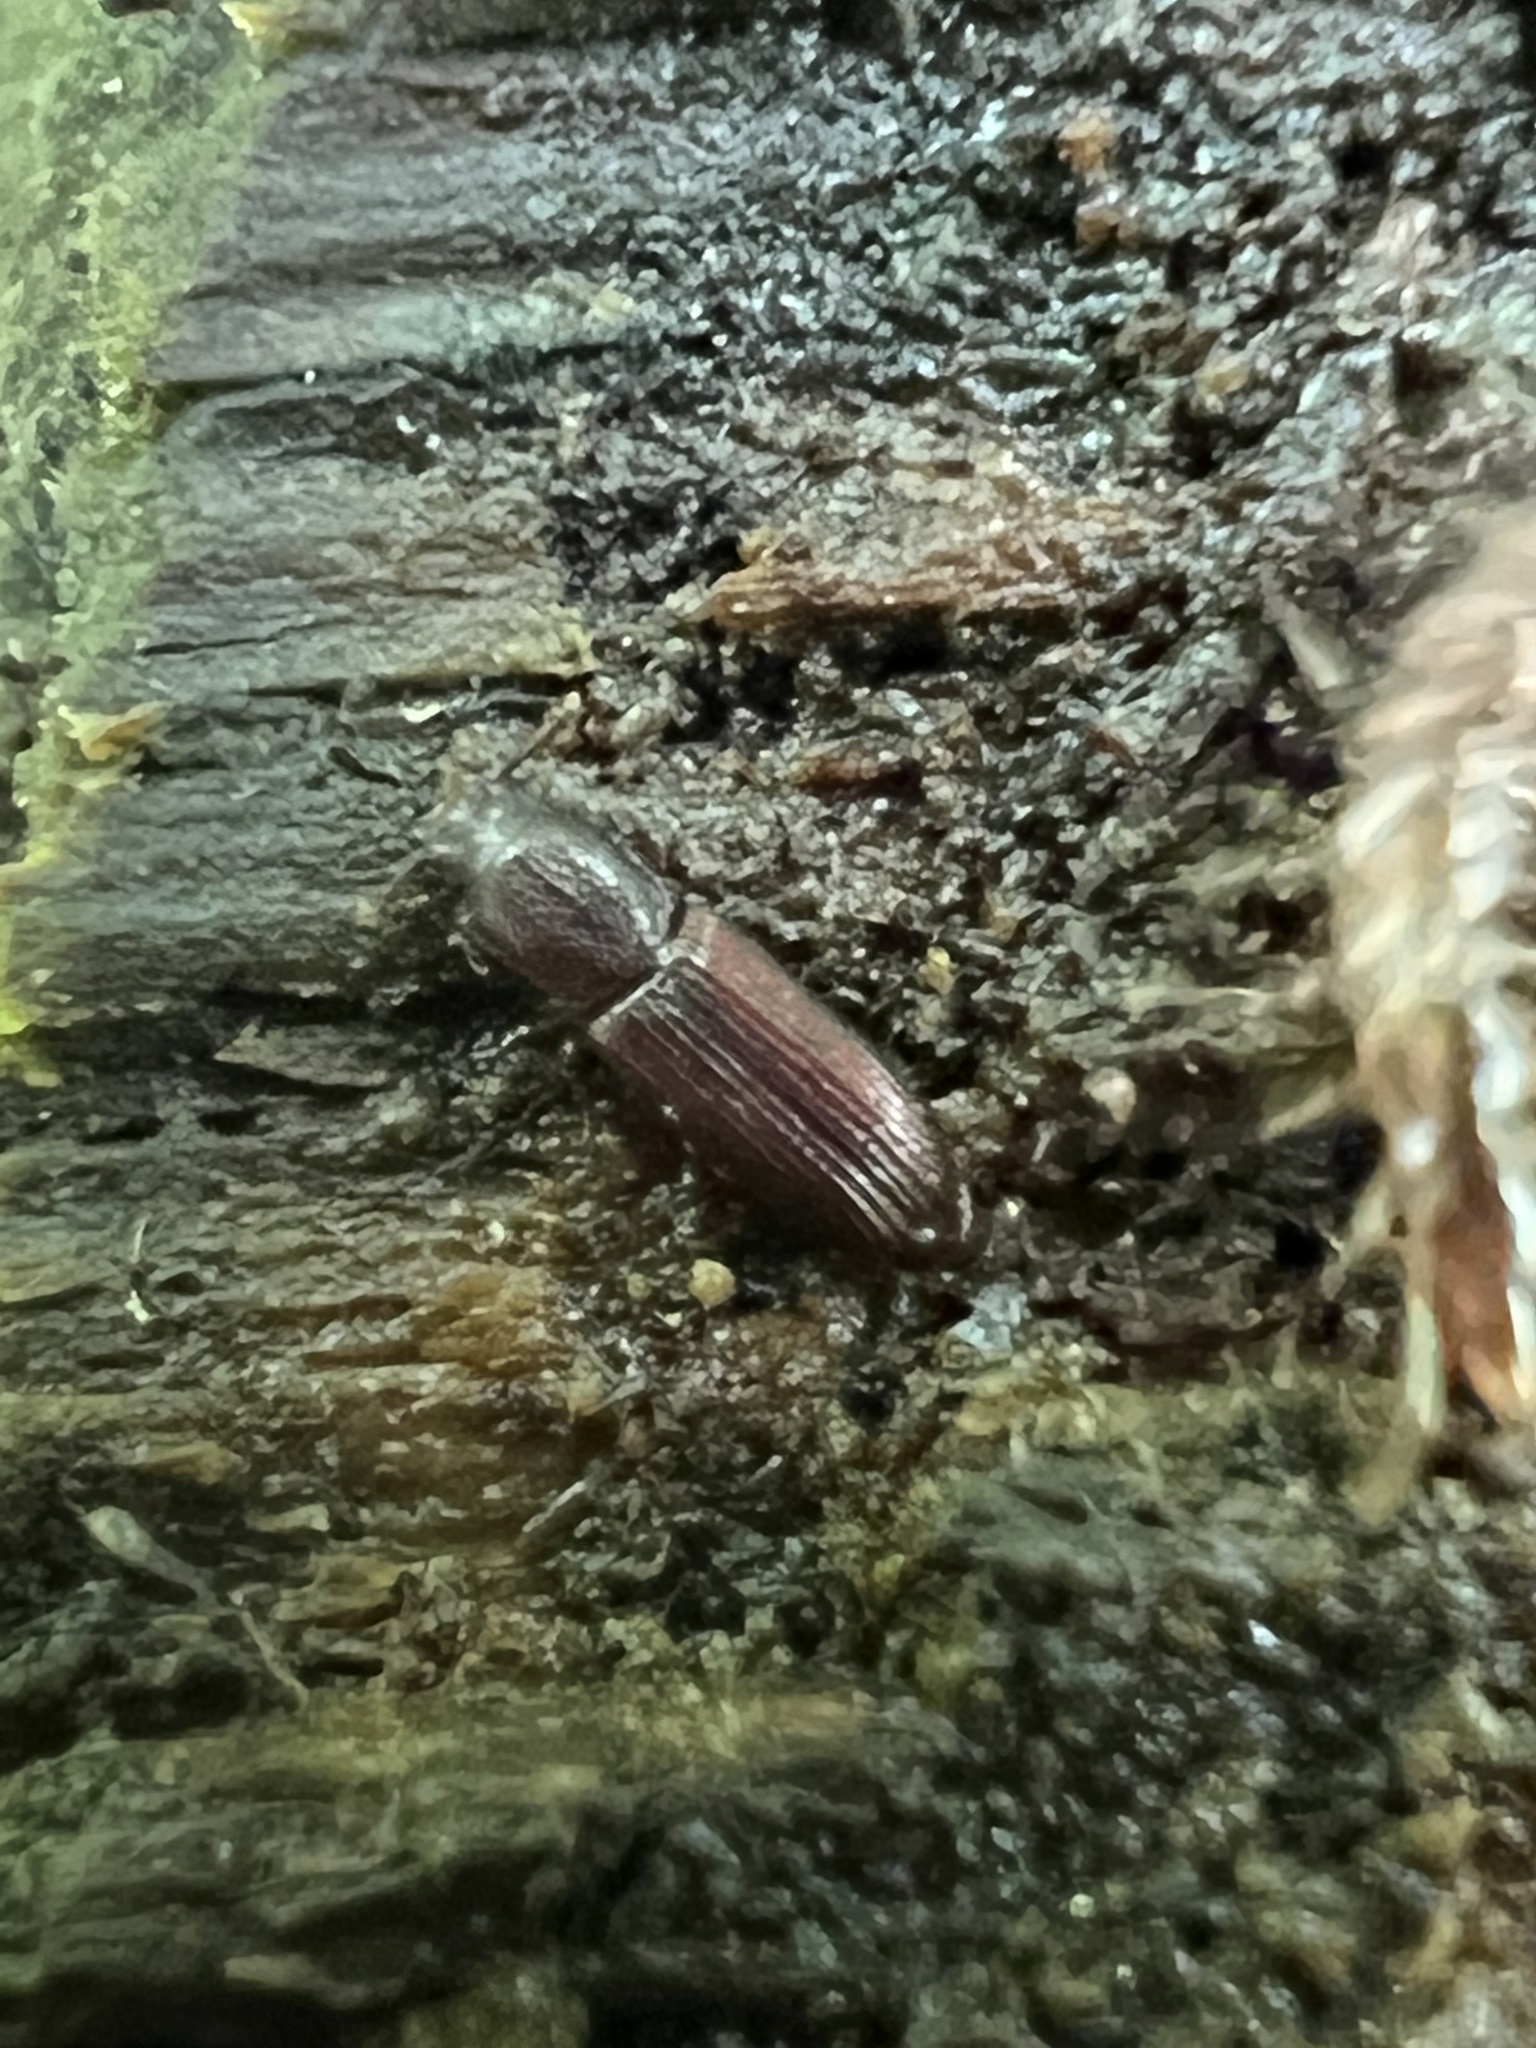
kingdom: Animalia
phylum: Arthropoda
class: Insecta
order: Coleoptera
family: Zopheridae
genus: Pycnomerus
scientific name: Pycnomerus reflexus
